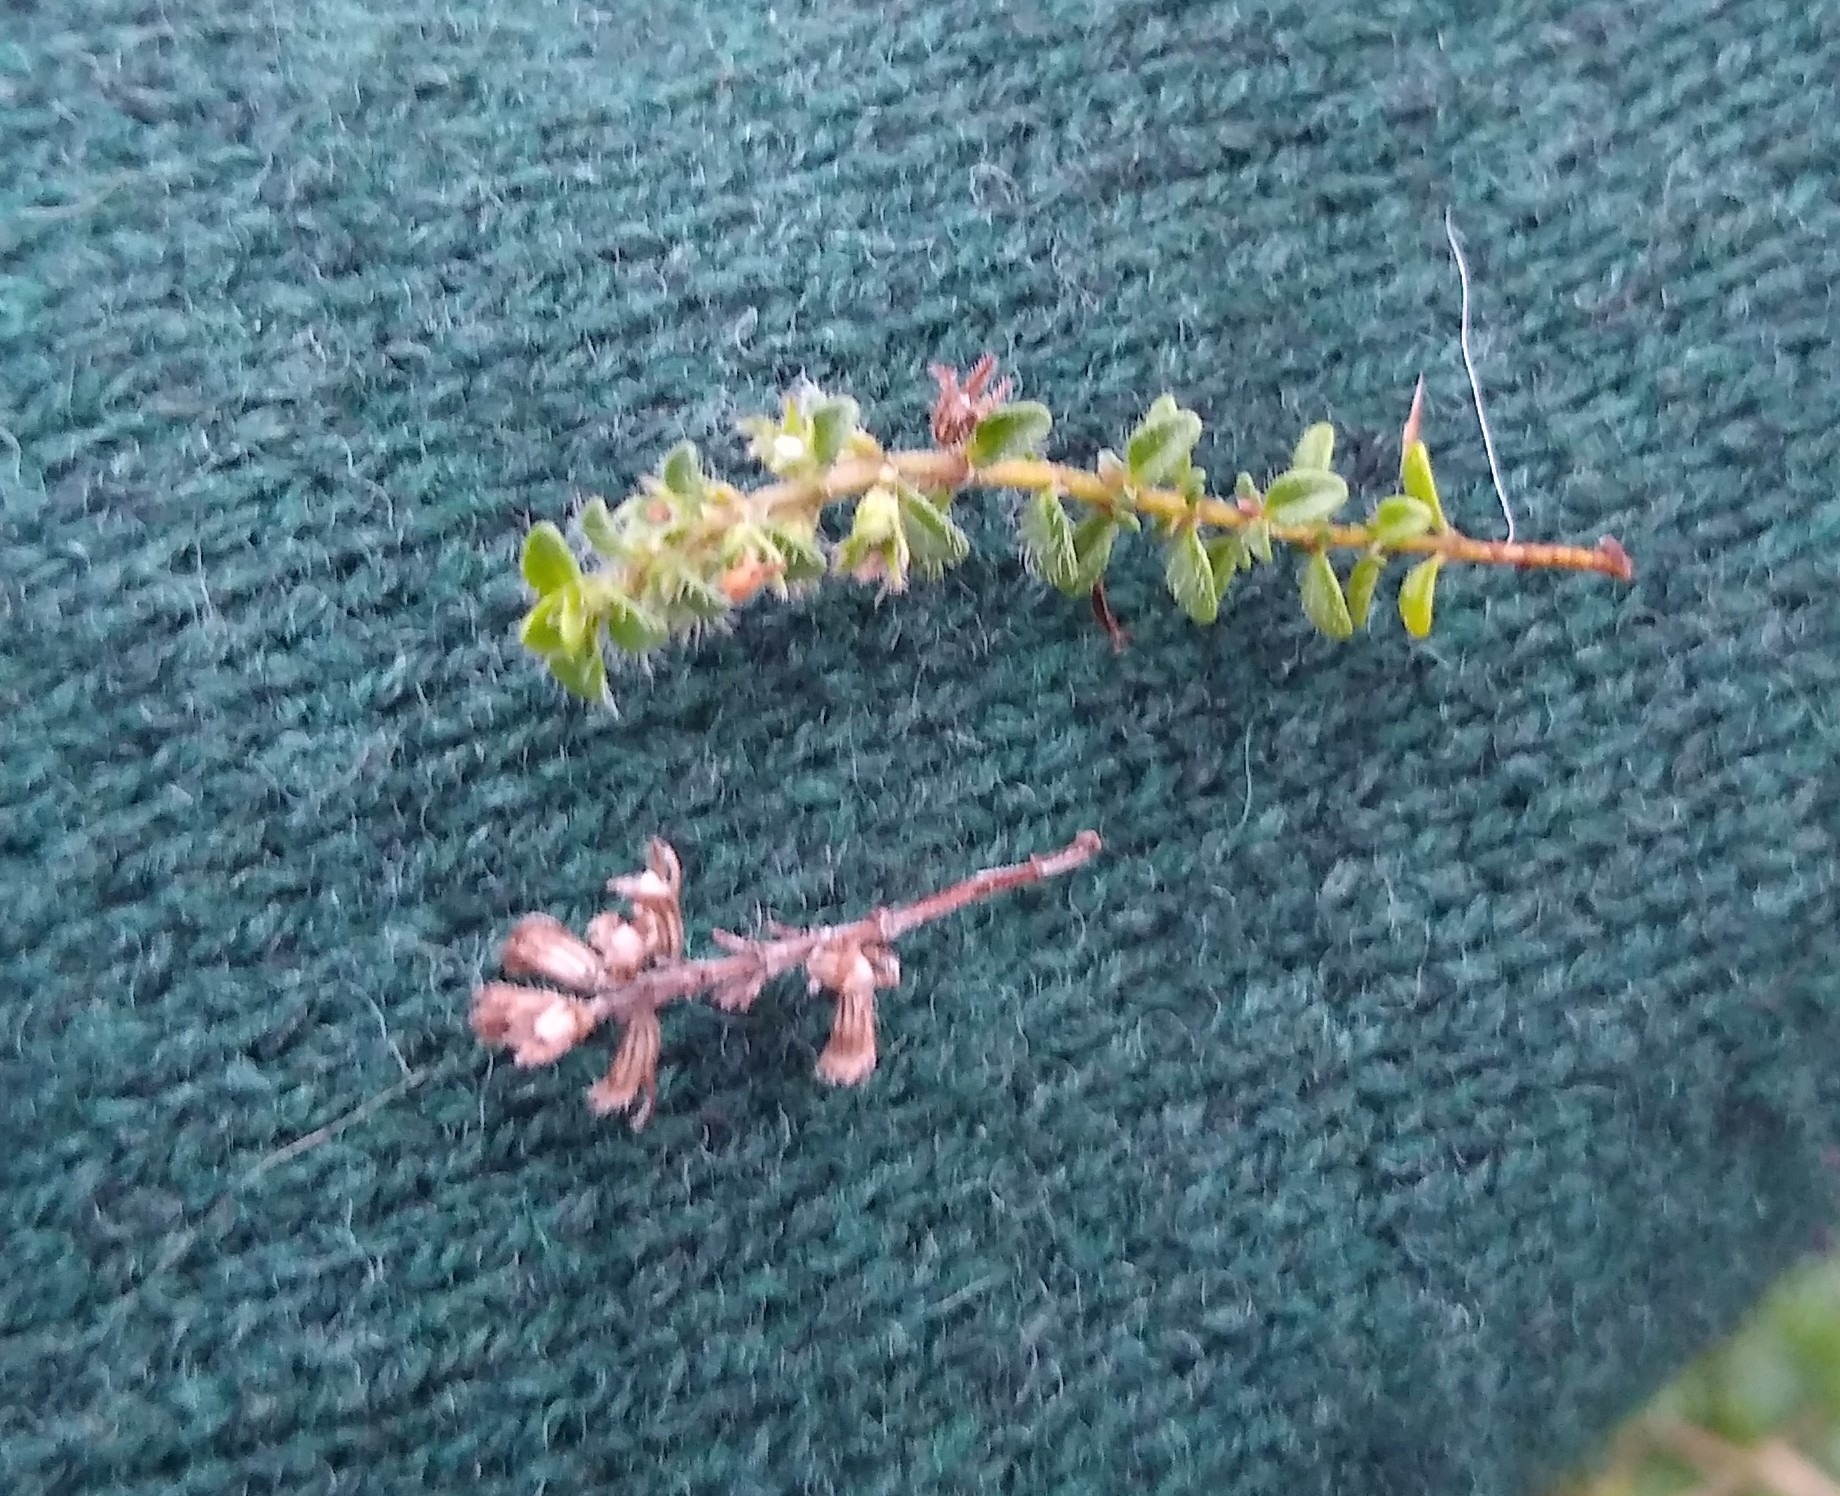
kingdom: Plantae
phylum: Tracheophyta
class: Magnoliopsida
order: Lamiales
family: Lamiaceae
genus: Thymus
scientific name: Thymus praecox
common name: Wild thyme
